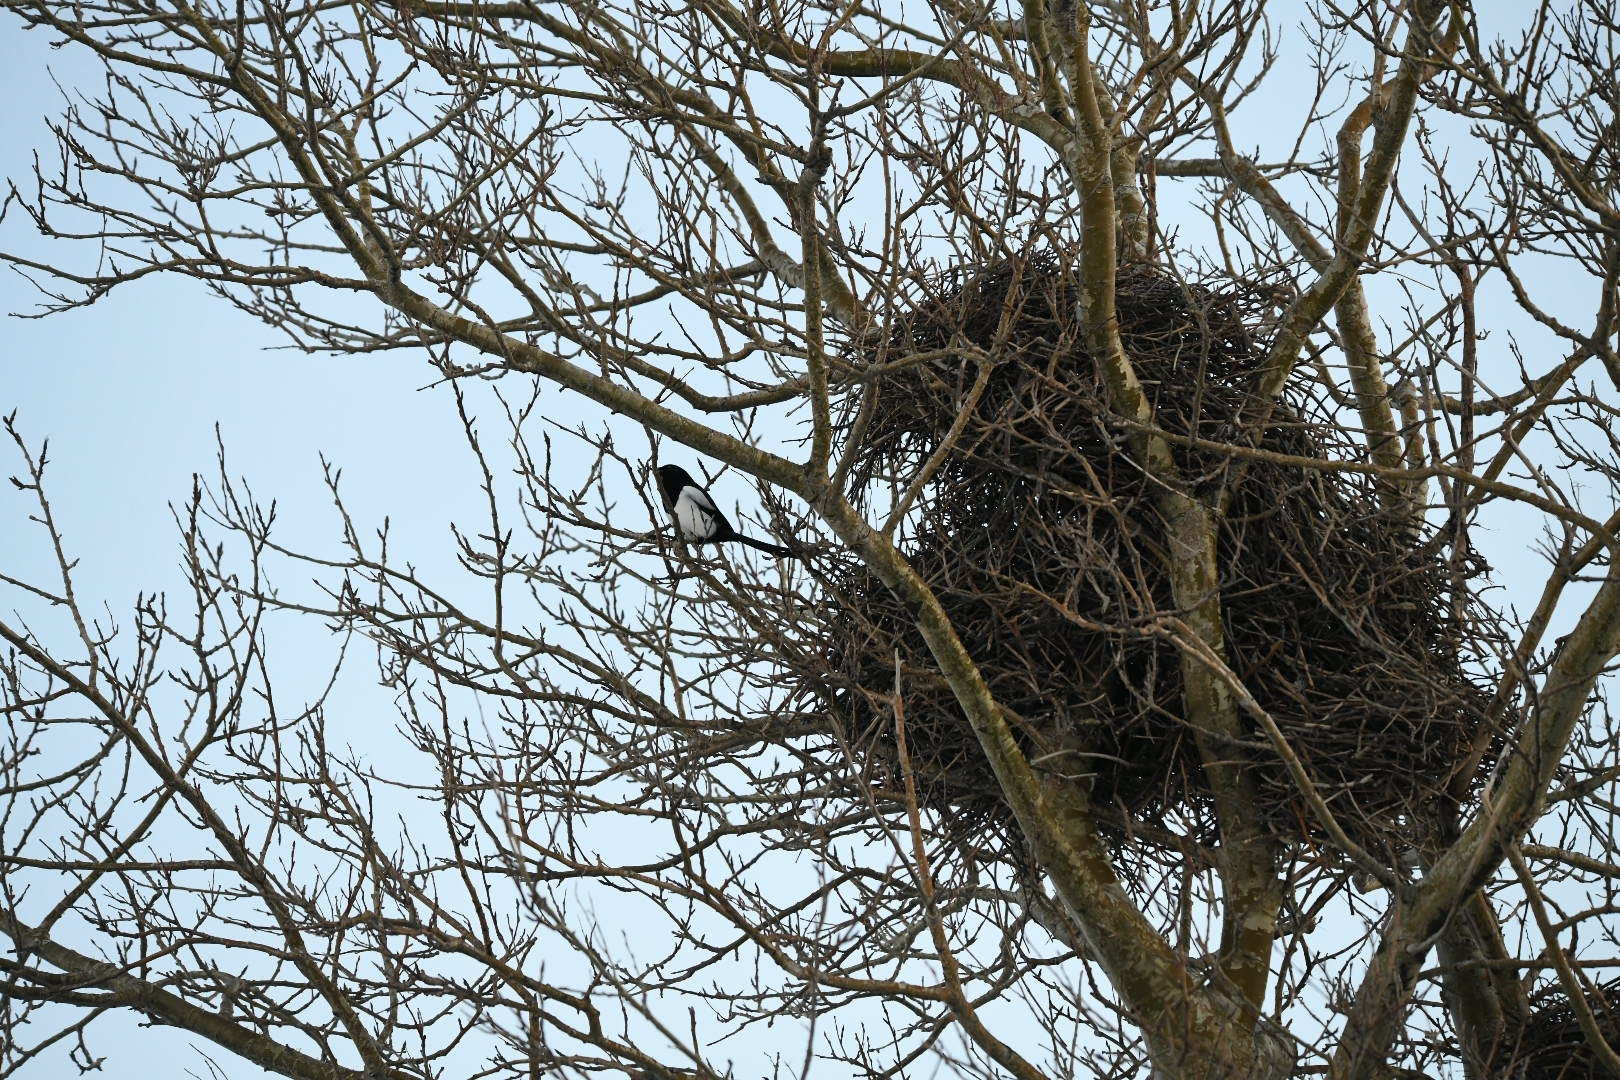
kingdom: Animalia
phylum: Chordata
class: Aves
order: Passeriformes
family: Corvidae
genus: Pica
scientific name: Pica pica
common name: Eurasian magpie
